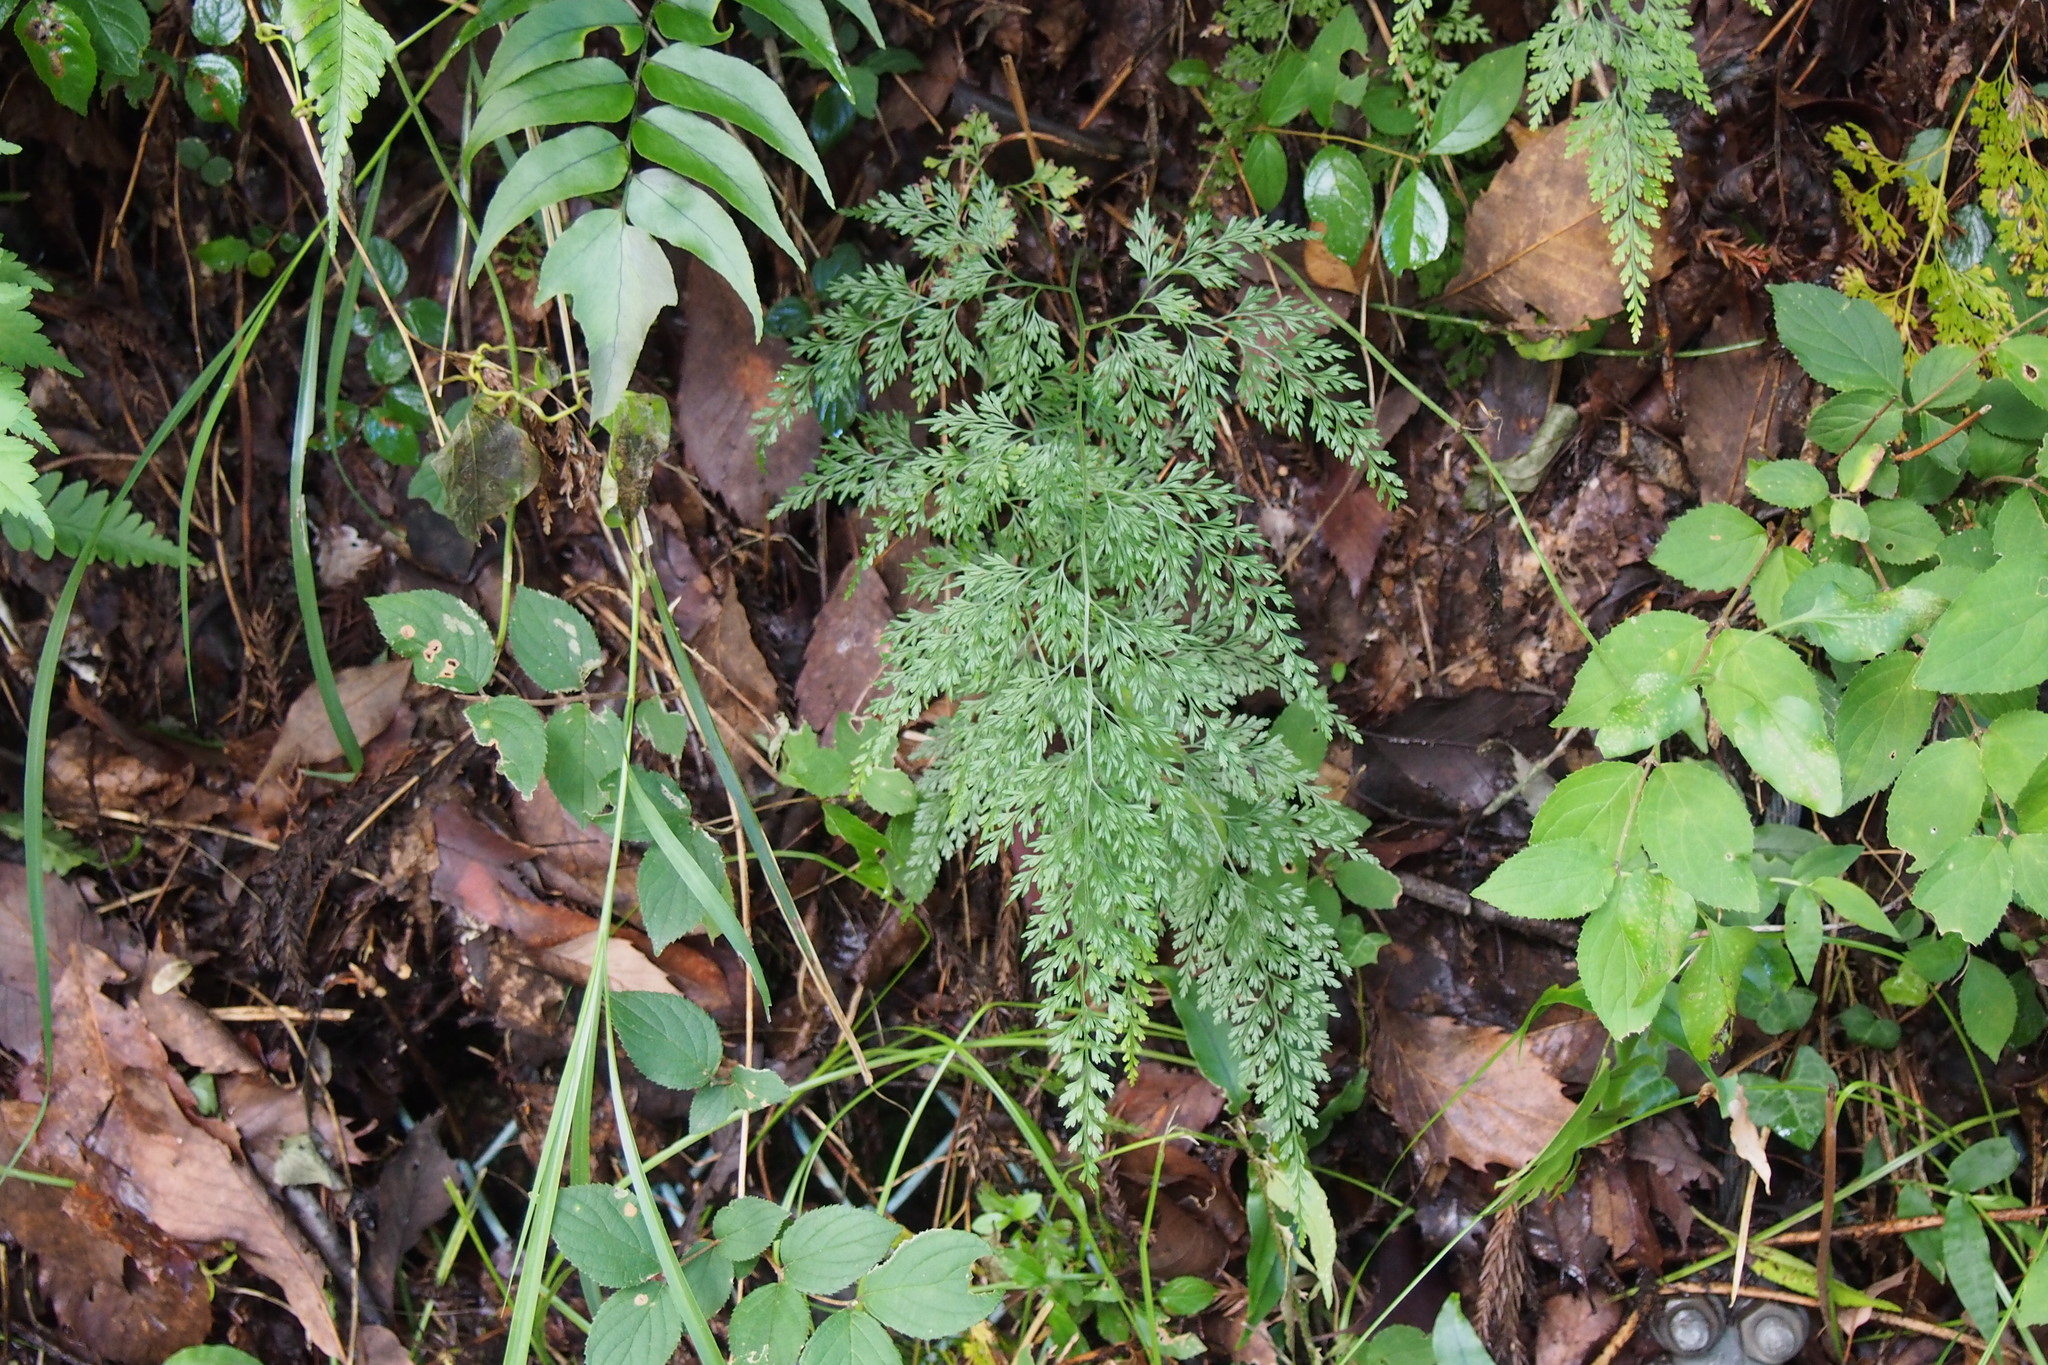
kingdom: Plantae
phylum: Tracheophyta
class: Polypodiopsida
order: Polypodiales
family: Pteridaceae
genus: Onychium
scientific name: Onychium japonicum
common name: Carrot fern
